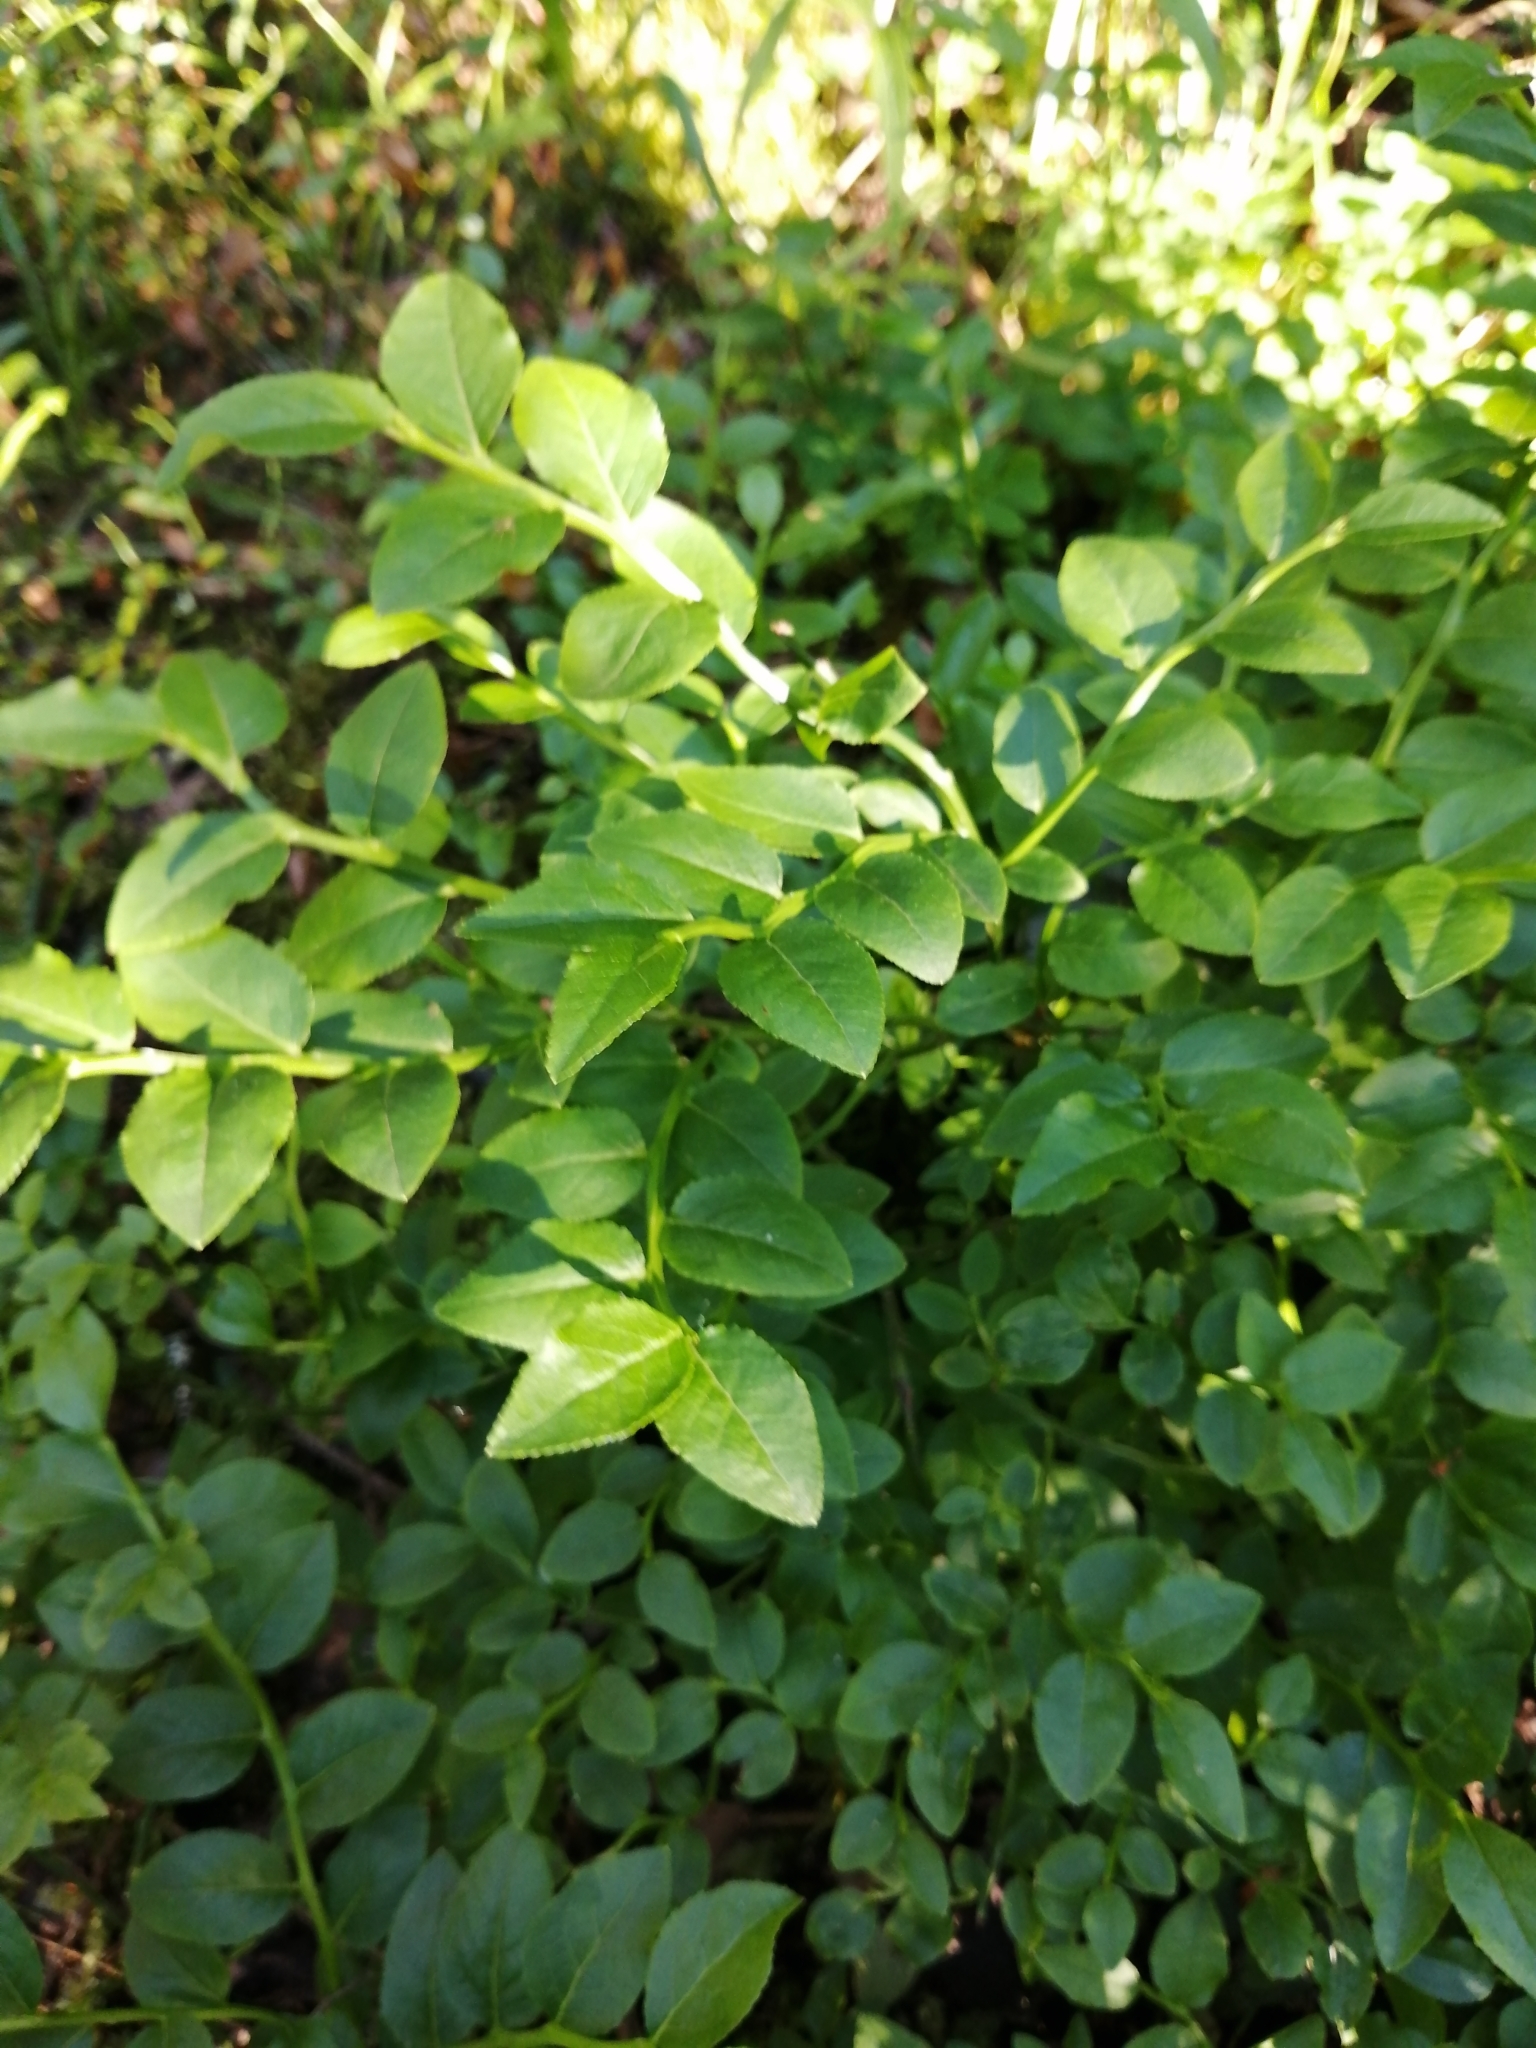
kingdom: Plantae
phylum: Tracheophyta
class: Magnoliopsida
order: Ericales
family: Ericaceae
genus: Vaccinium
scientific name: Vaccinium myrtillus
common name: Bilberry
